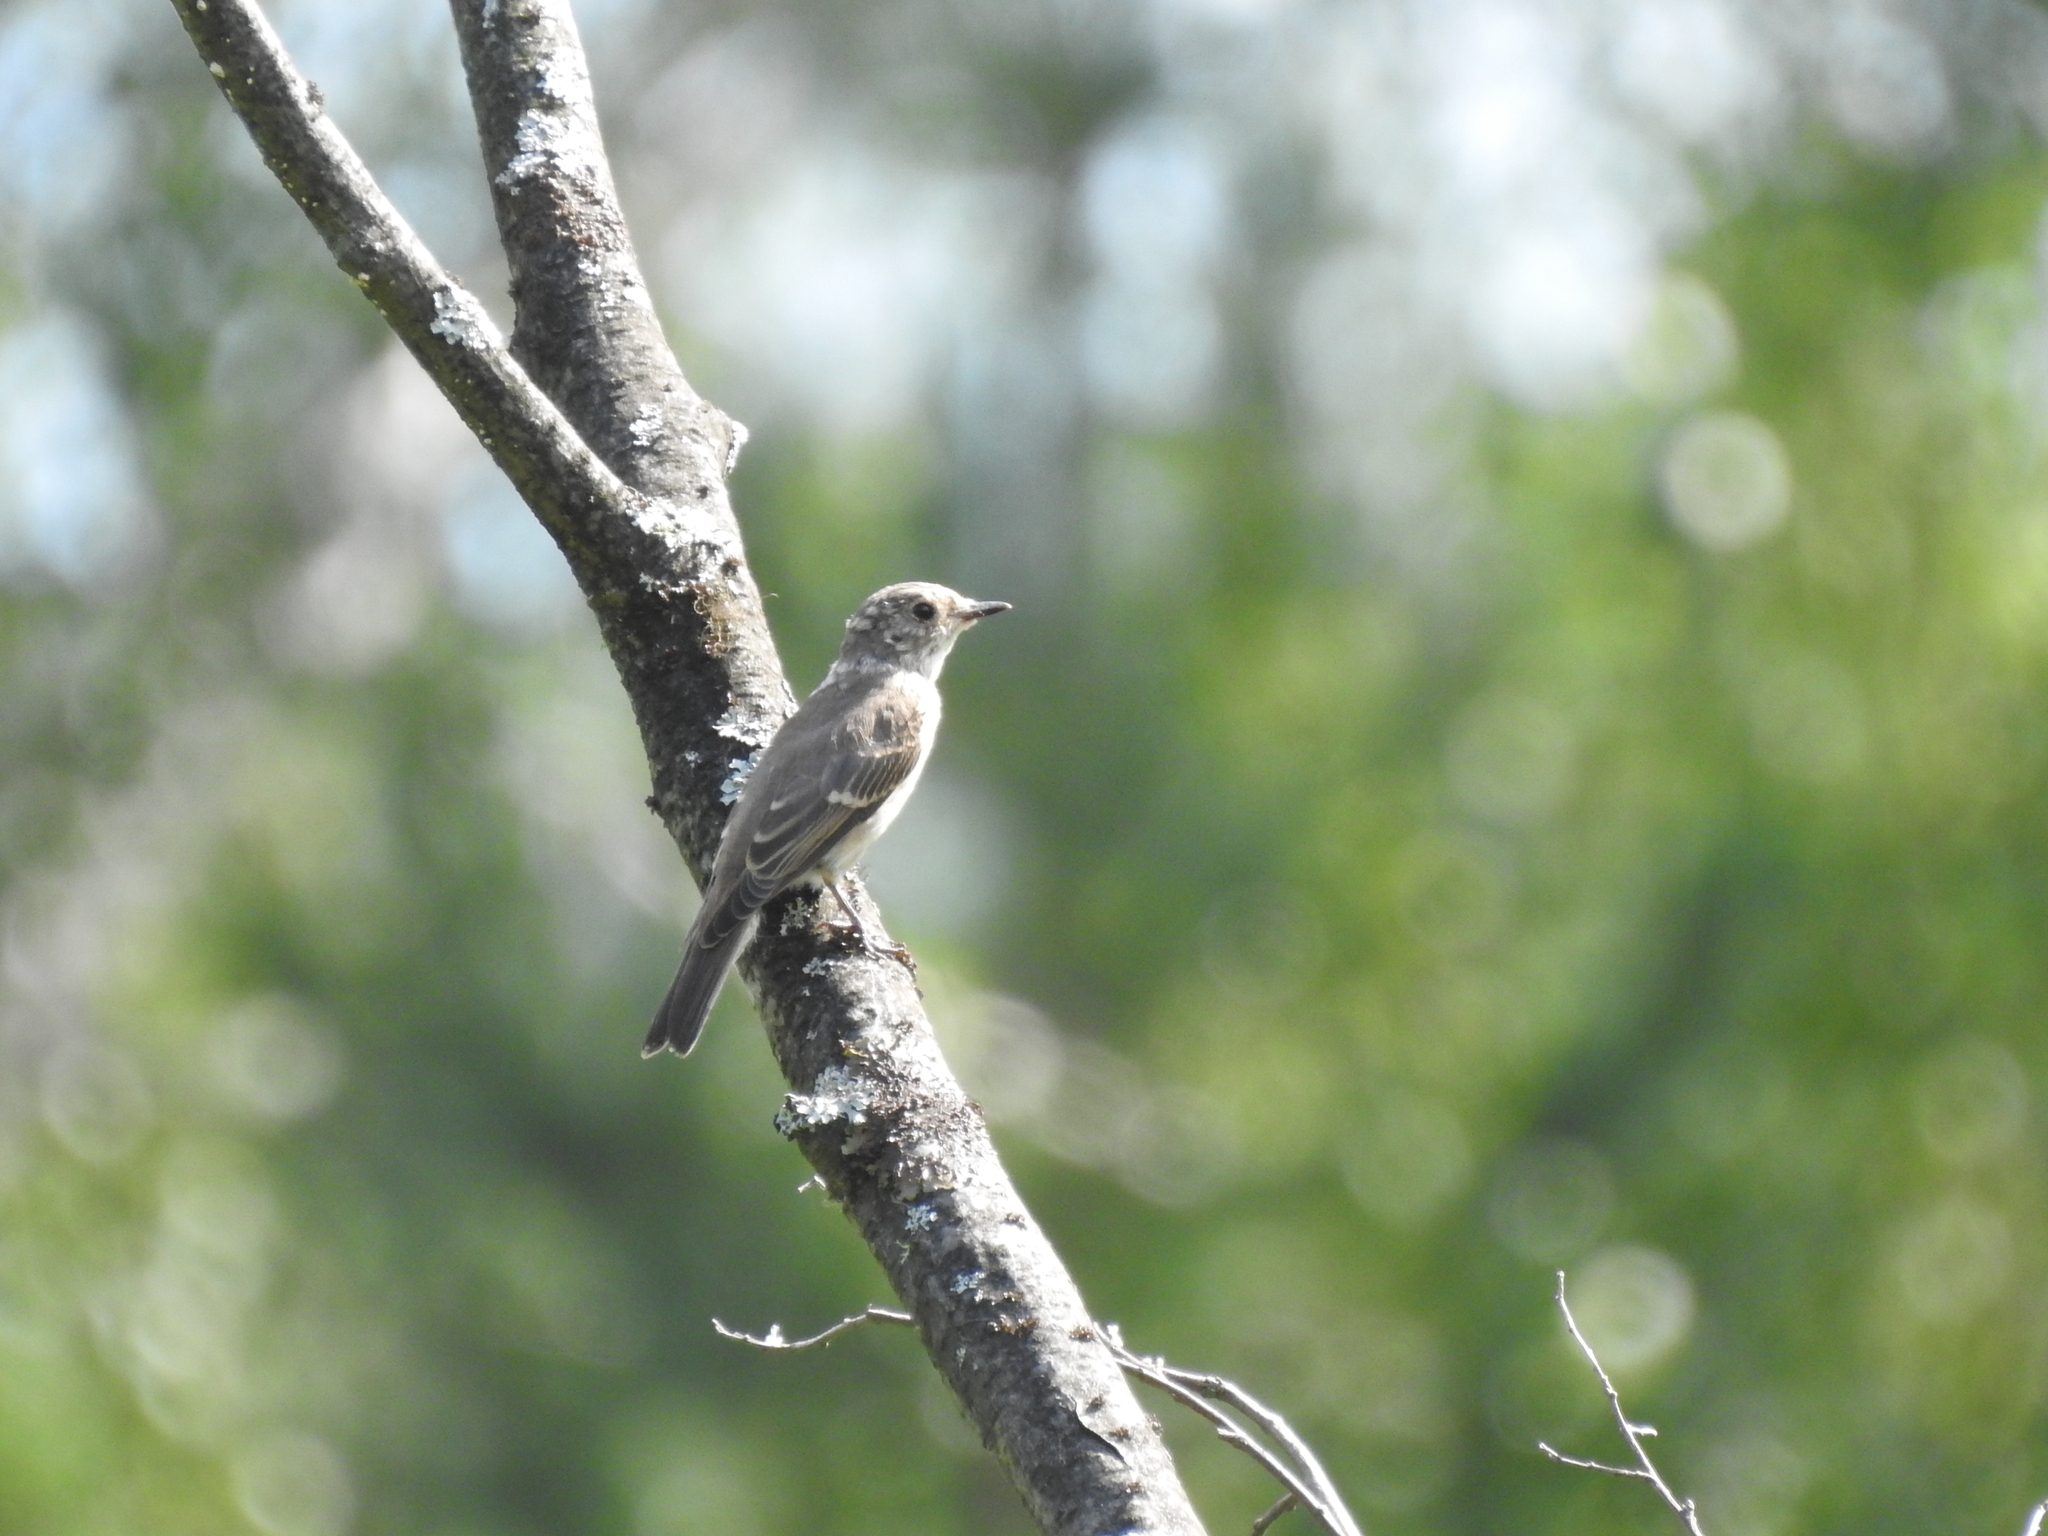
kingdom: Animalia
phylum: Chordata
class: Aves
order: Passeriformes
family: Muscicapidae
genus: Muscicapa
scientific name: Muscicapa striata
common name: Spotted flycatcher
